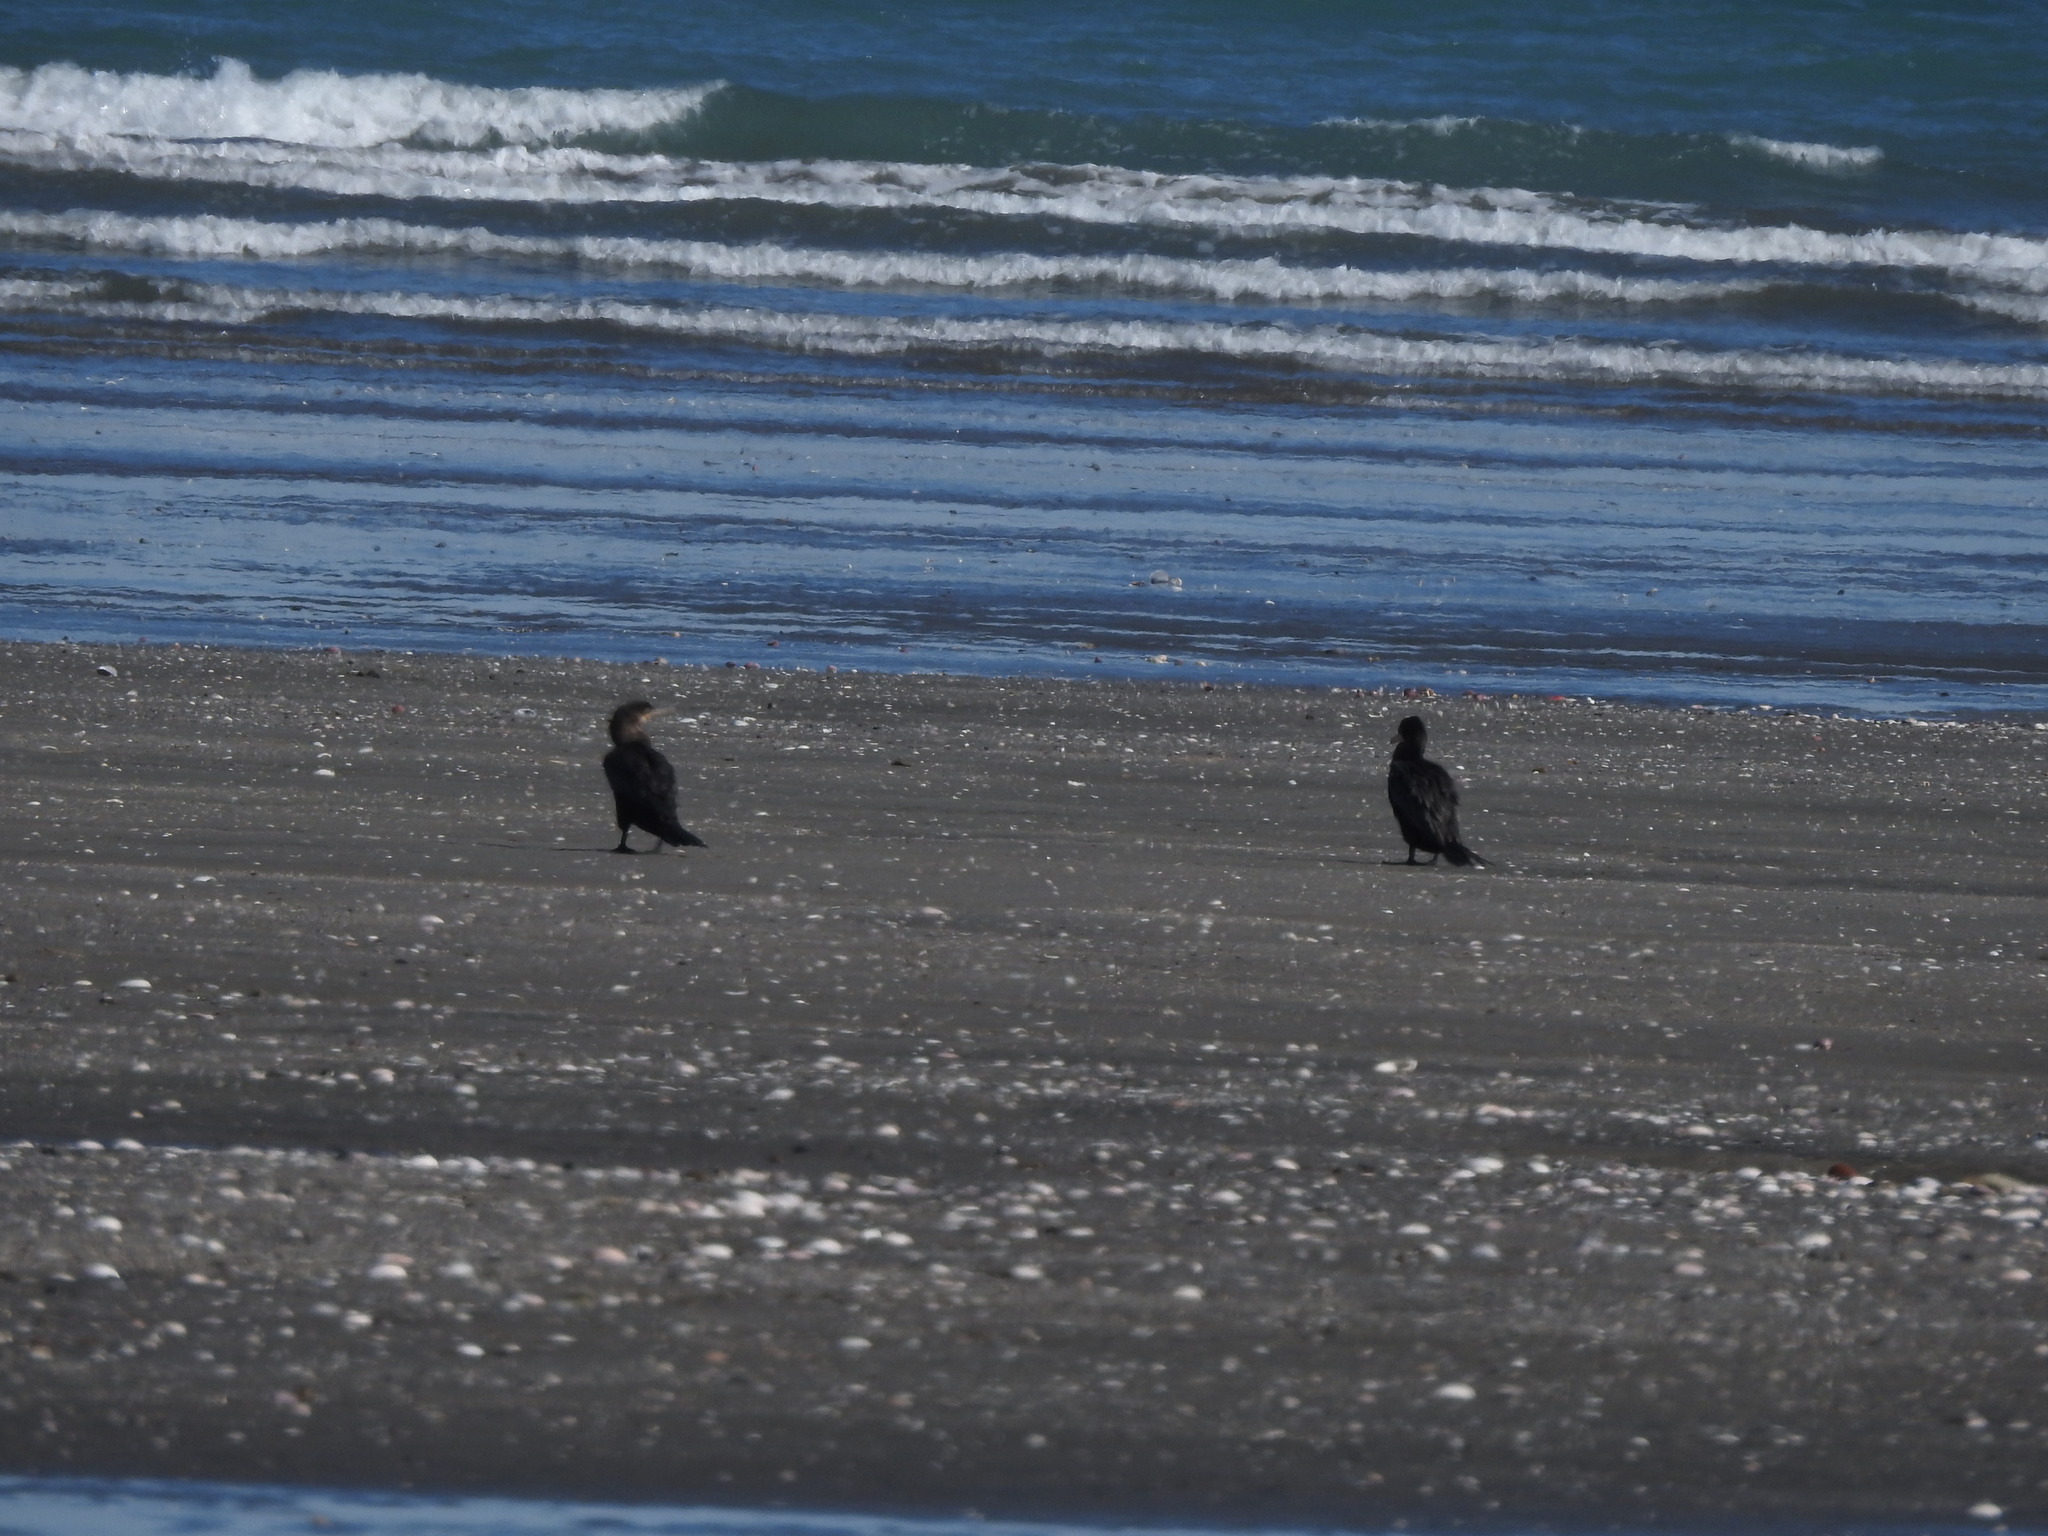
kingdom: Animalia
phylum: Chordata
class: Aves
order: Suliformes
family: Phalacrocoracidae
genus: Phalacrocorax
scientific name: Phalacrocorax brasilianus
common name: Neotropic cormorant
